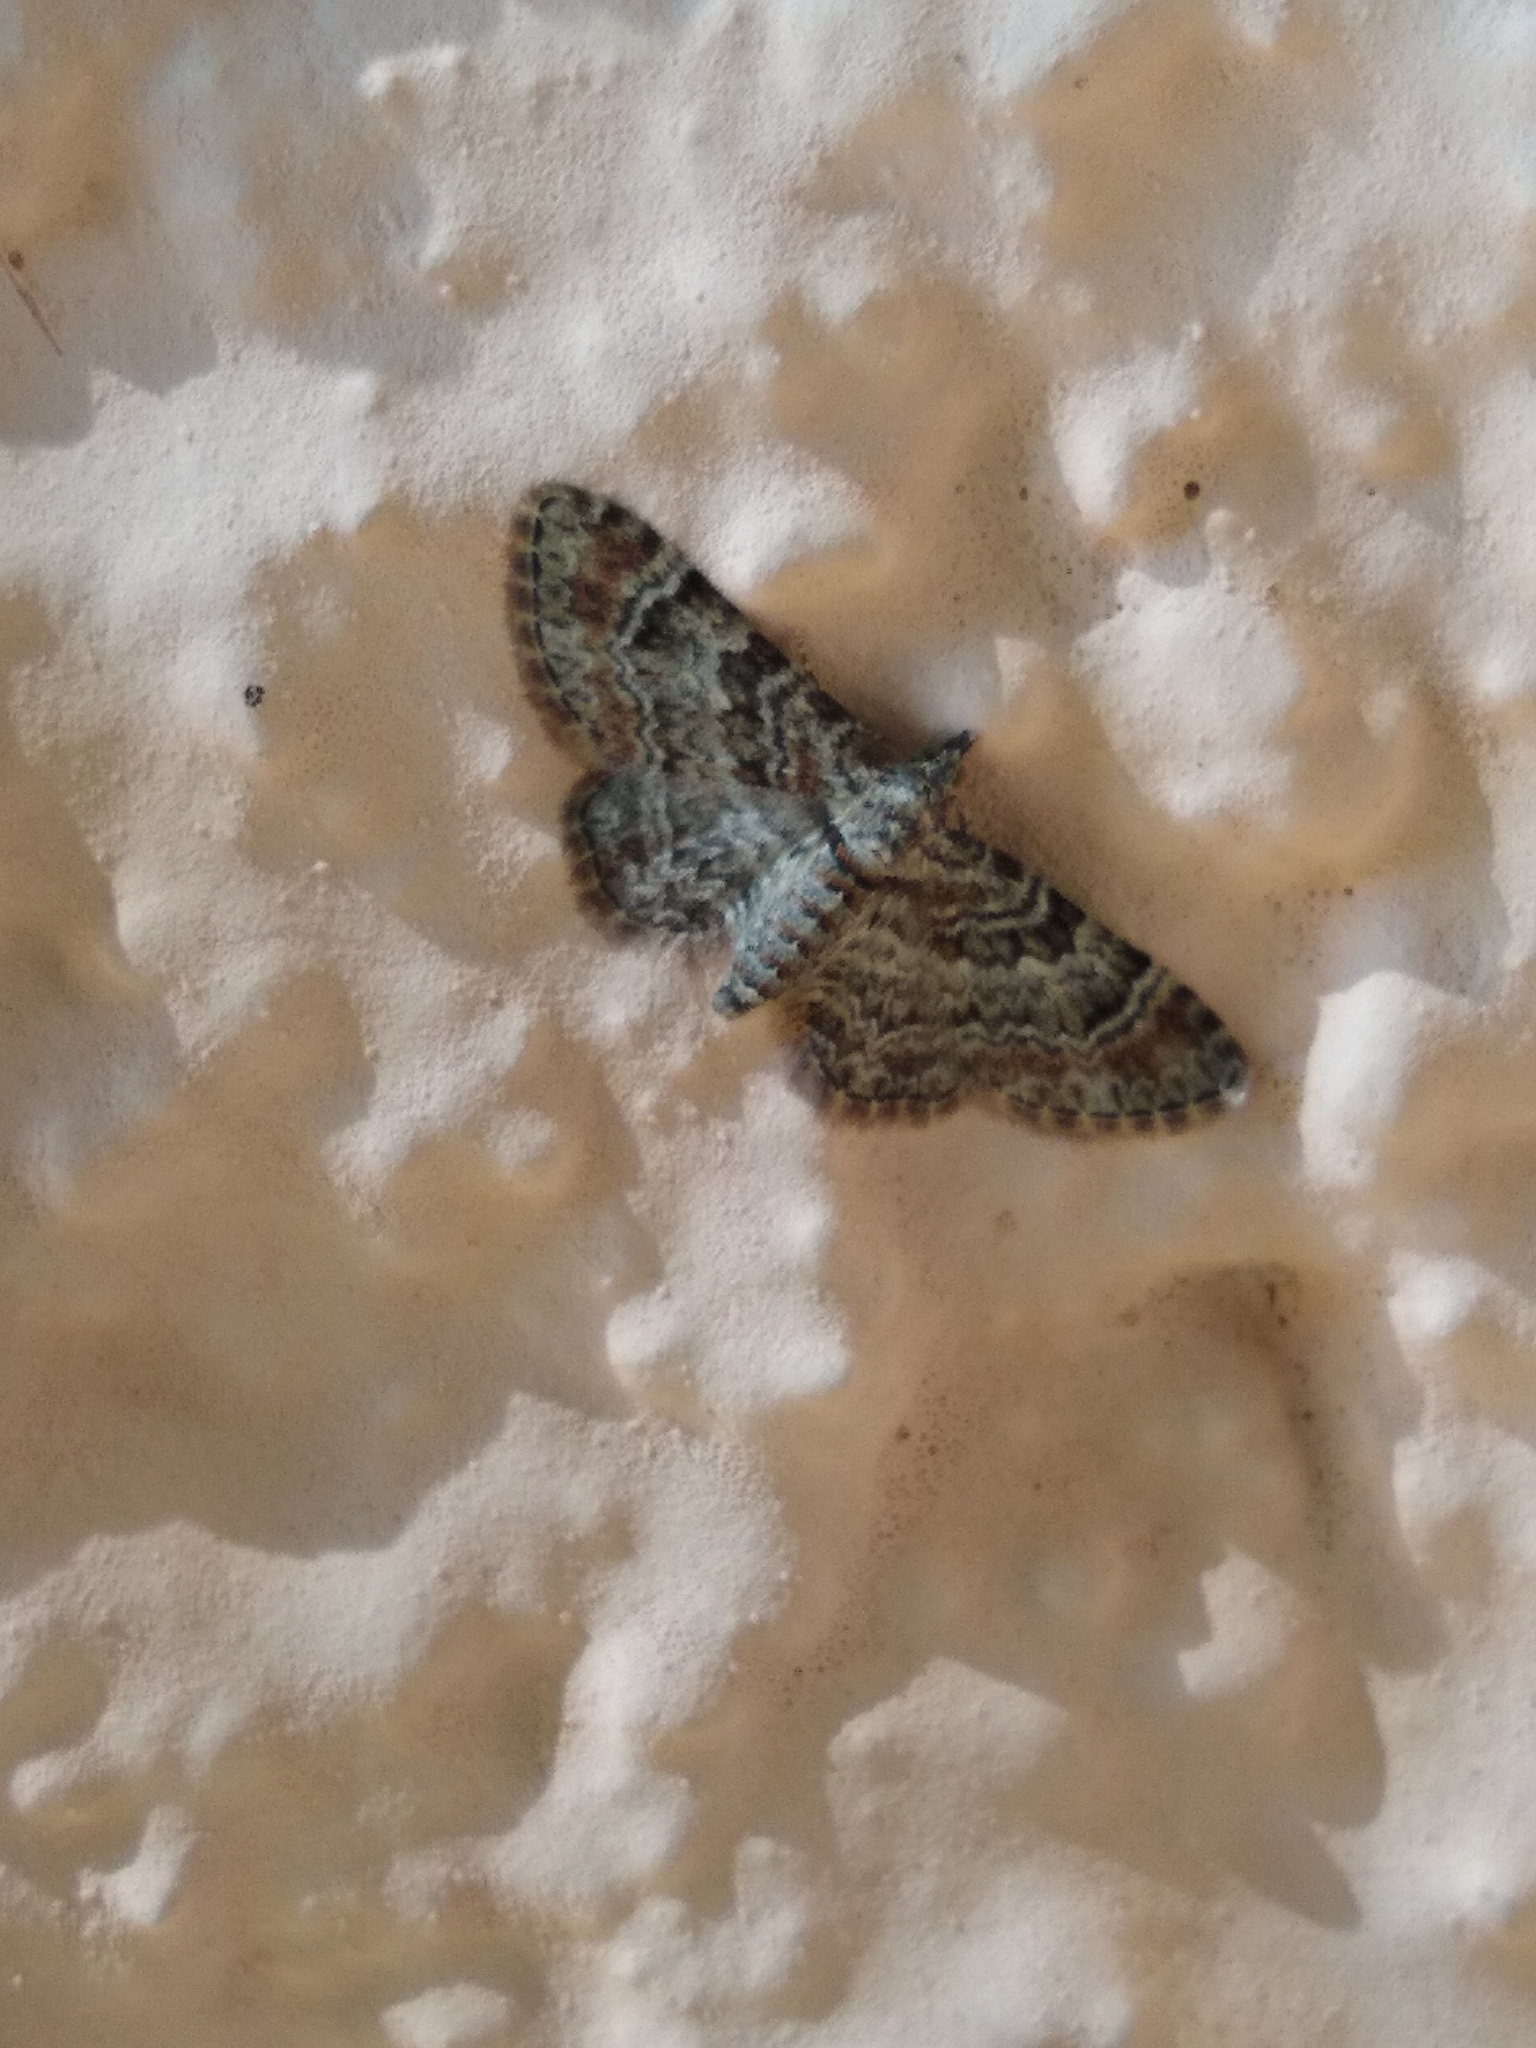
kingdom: Animalia
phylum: Arthropoda
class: Insecta
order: Lepidoptera
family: Geometridae
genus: Gymnoscelis
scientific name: Gymnoscelis rufifasciata
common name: Double-striped pug
